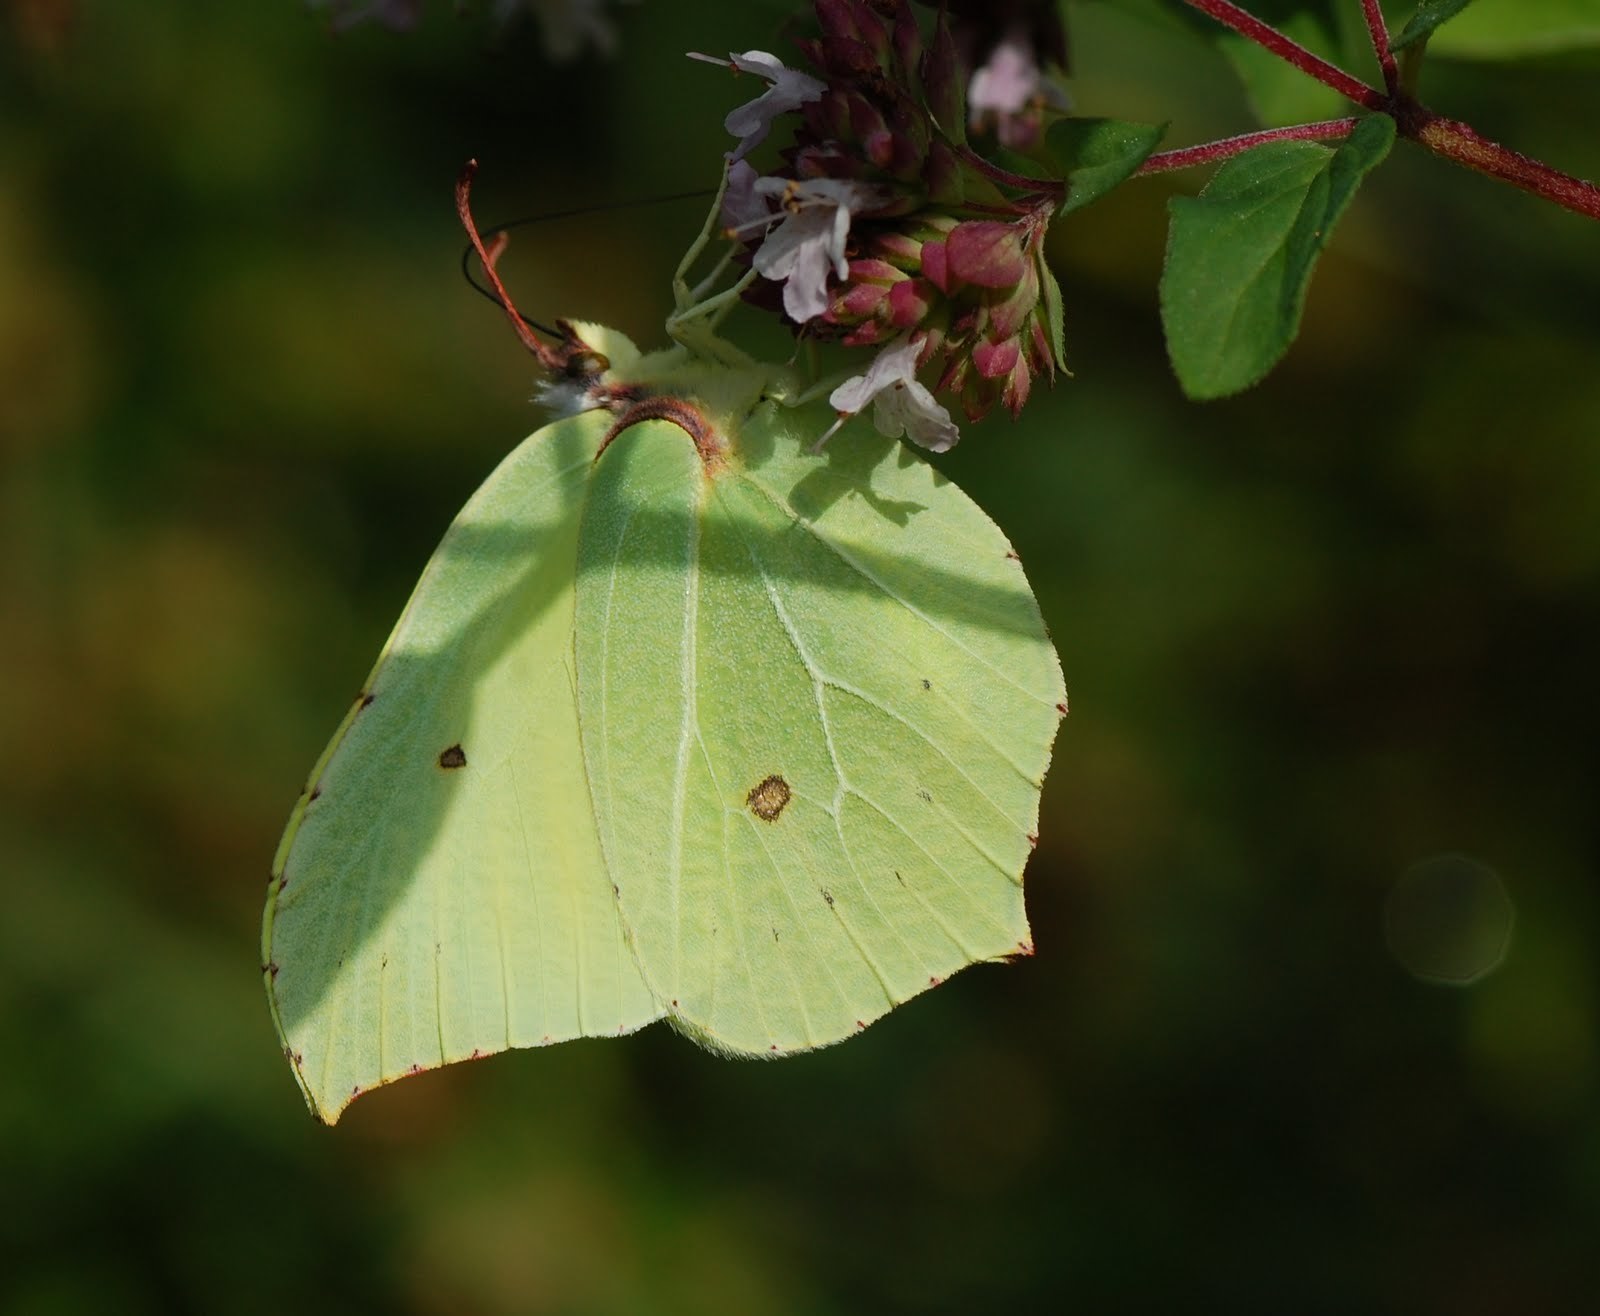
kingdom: Animalia
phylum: Arthropoda
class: Insecta
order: Lepidoptera
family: Pieridae
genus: Gonepteryx
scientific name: Gonepteryx rhamni
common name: Brimstone
